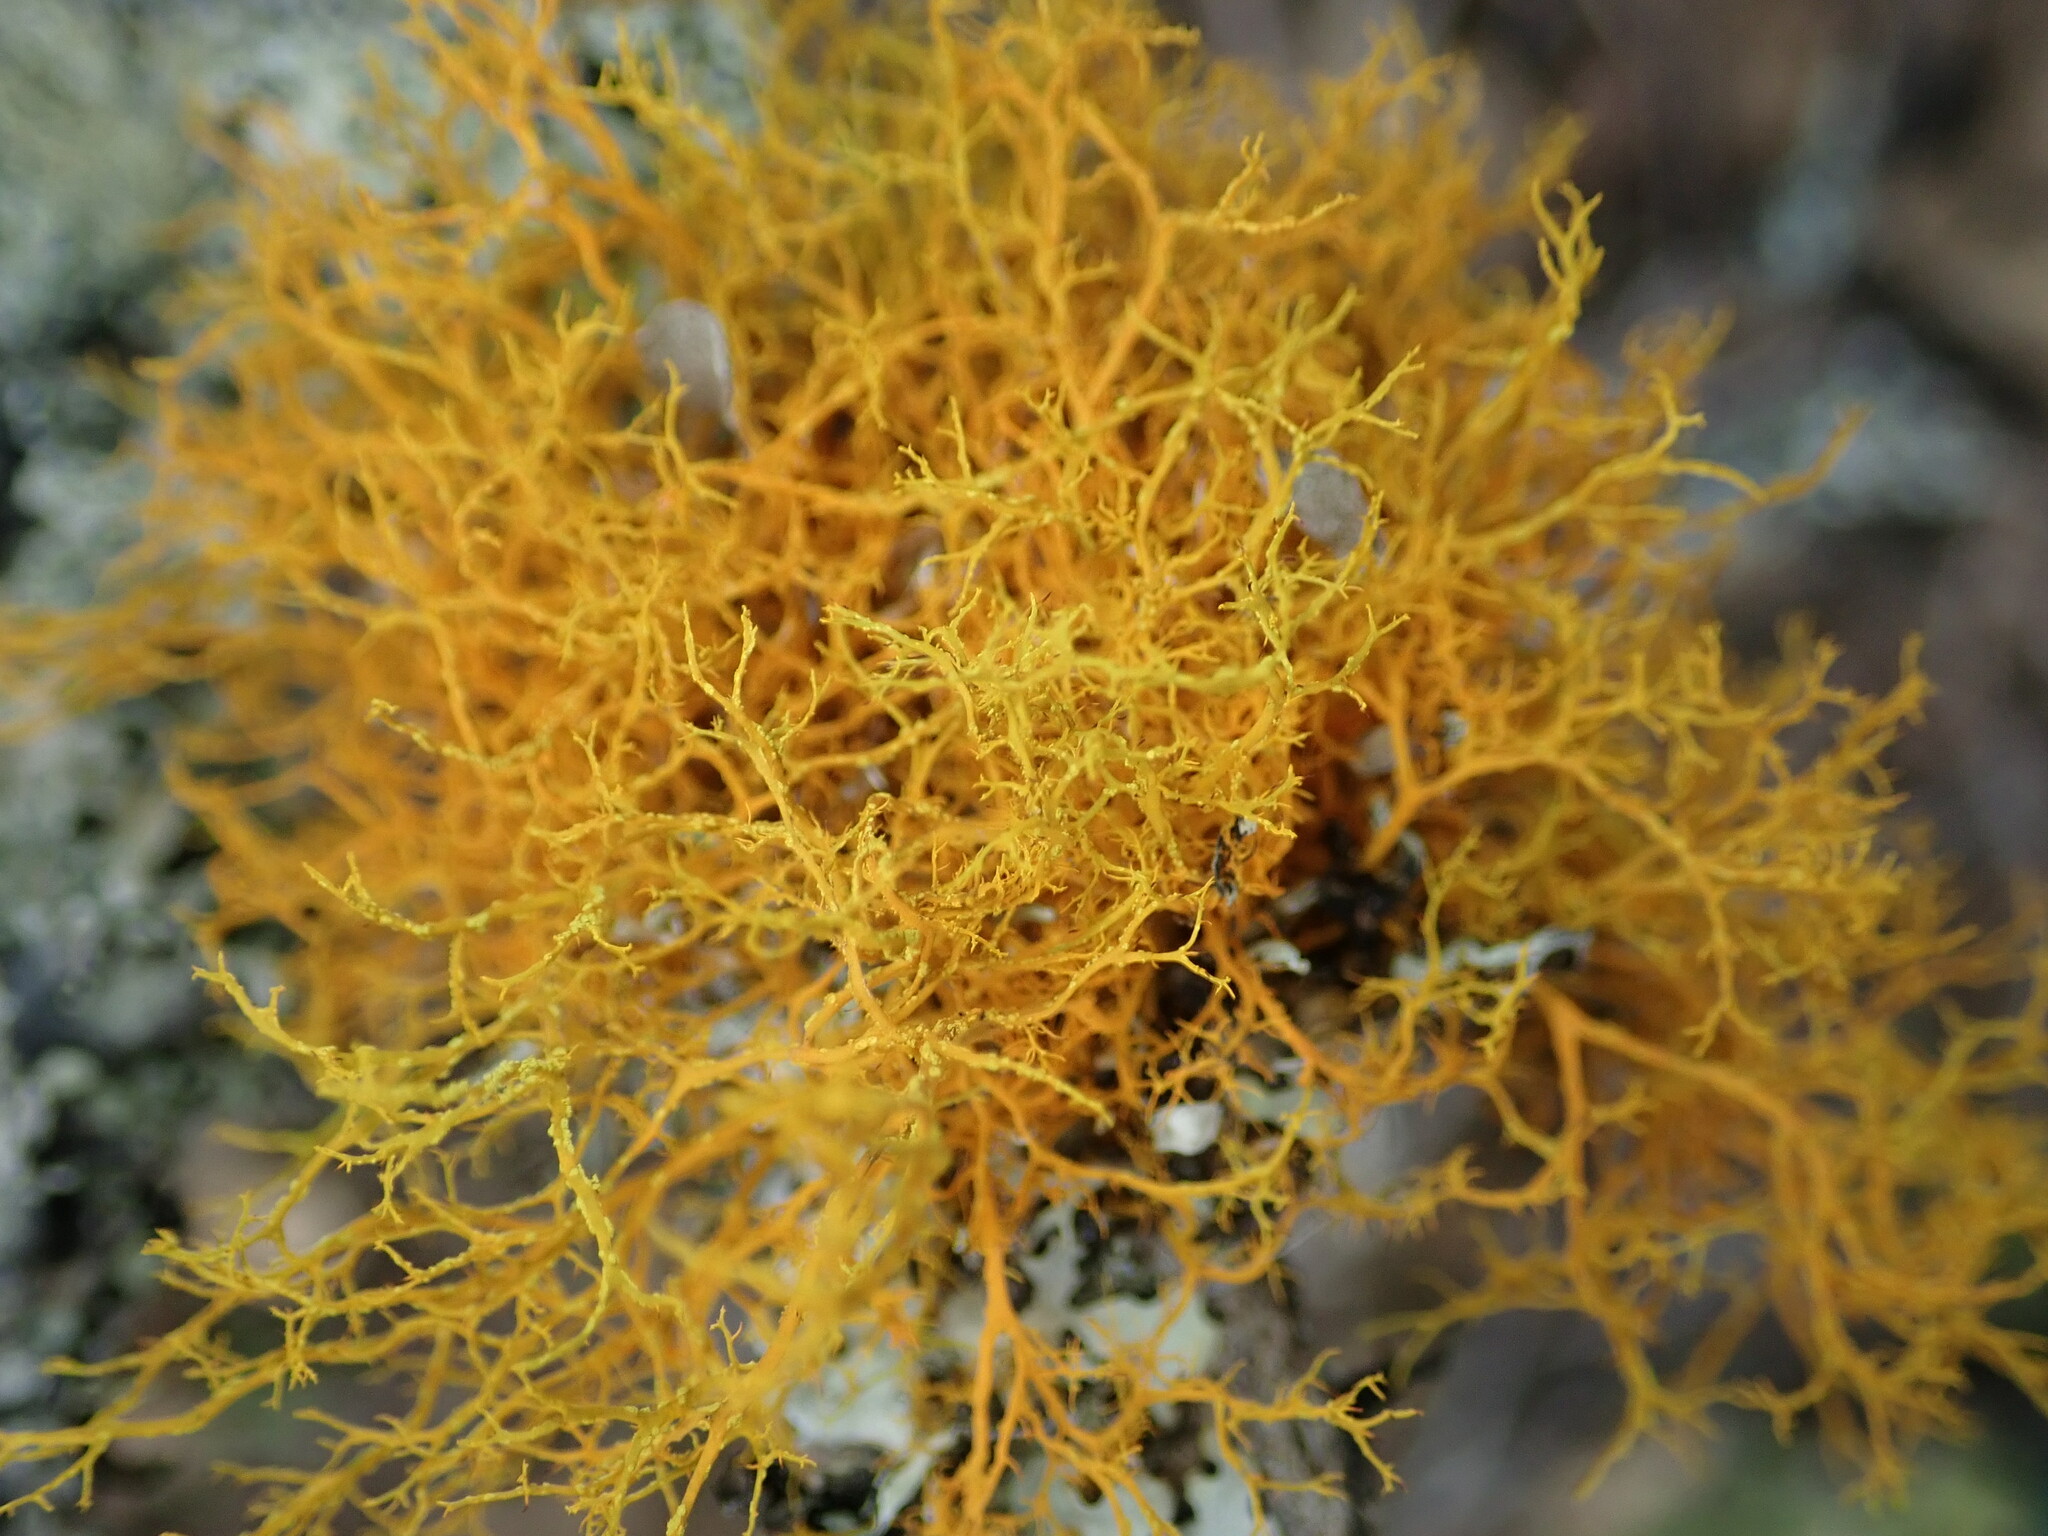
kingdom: Fungi
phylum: Ascomycota
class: Lecanoromycetes
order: Teloschistales
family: Teloschistaceae
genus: Teloschistes
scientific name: Teloschistes flavicans
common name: Golden hair-lichen
